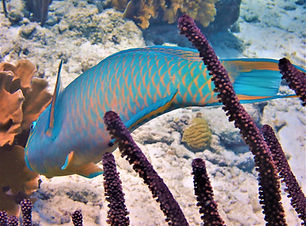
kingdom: Animalia
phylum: Chordata
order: Perciformes
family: Scaridae
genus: Scarus
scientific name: Scarus vetula
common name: Queen parrotfish
